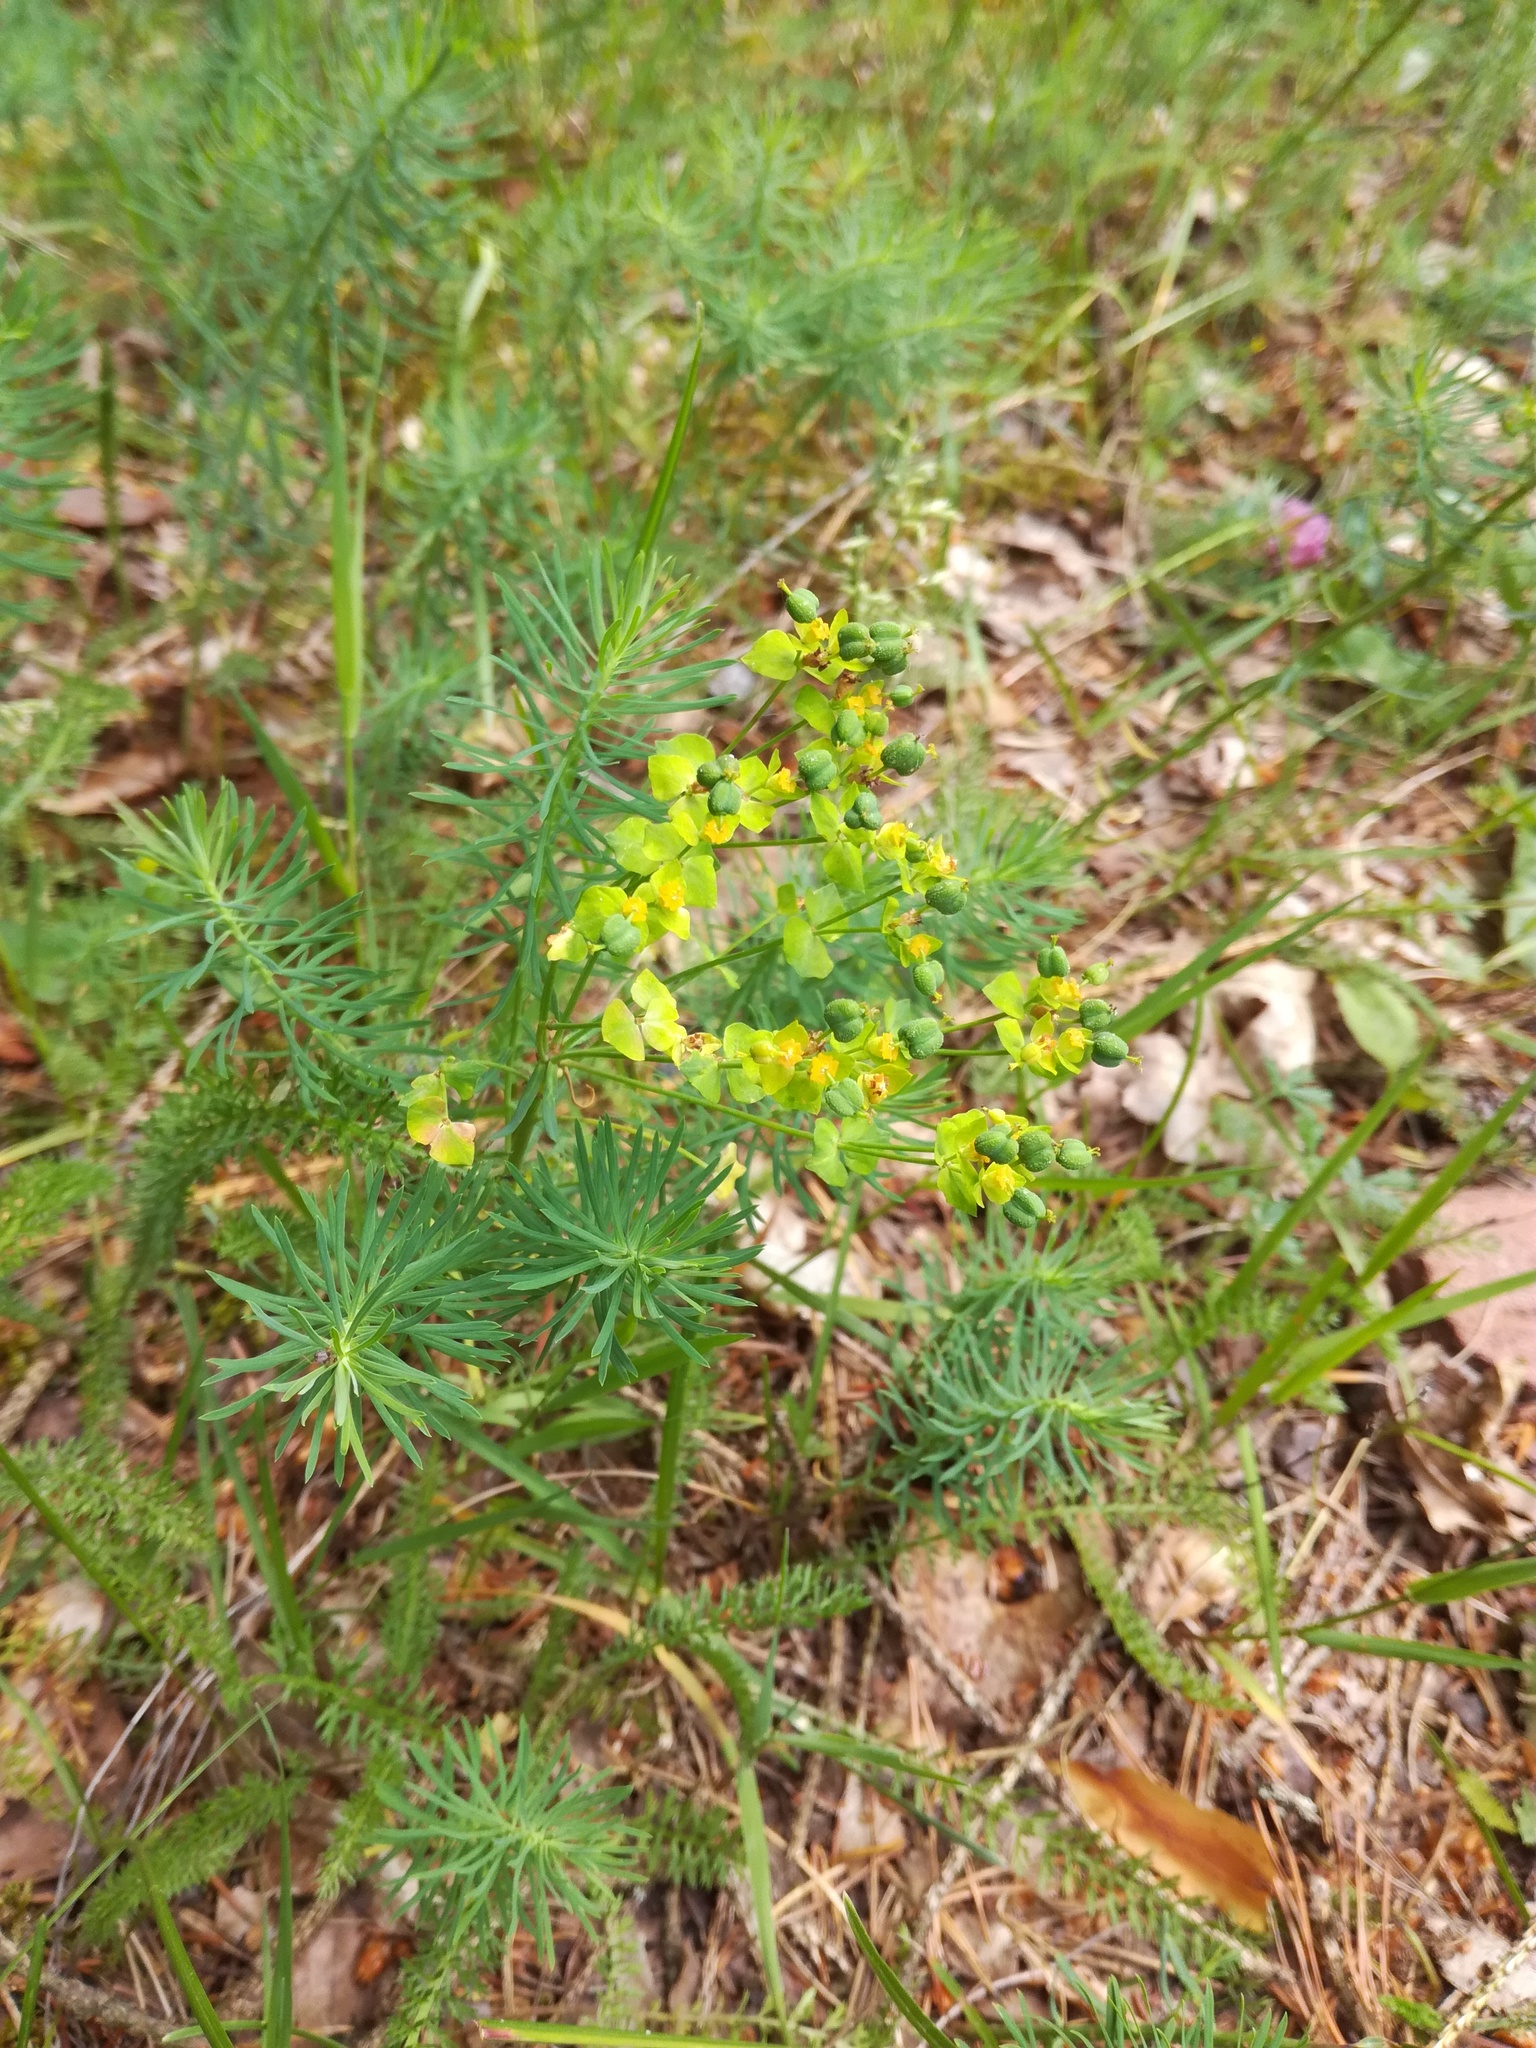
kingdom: Plantae
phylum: Tracheophyta
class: Magnoliopsida
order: Malpighiales
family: Euphorbiaceae
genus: Euphorbia
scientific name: Euphorbia cyparissias
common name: Cypress spurge
